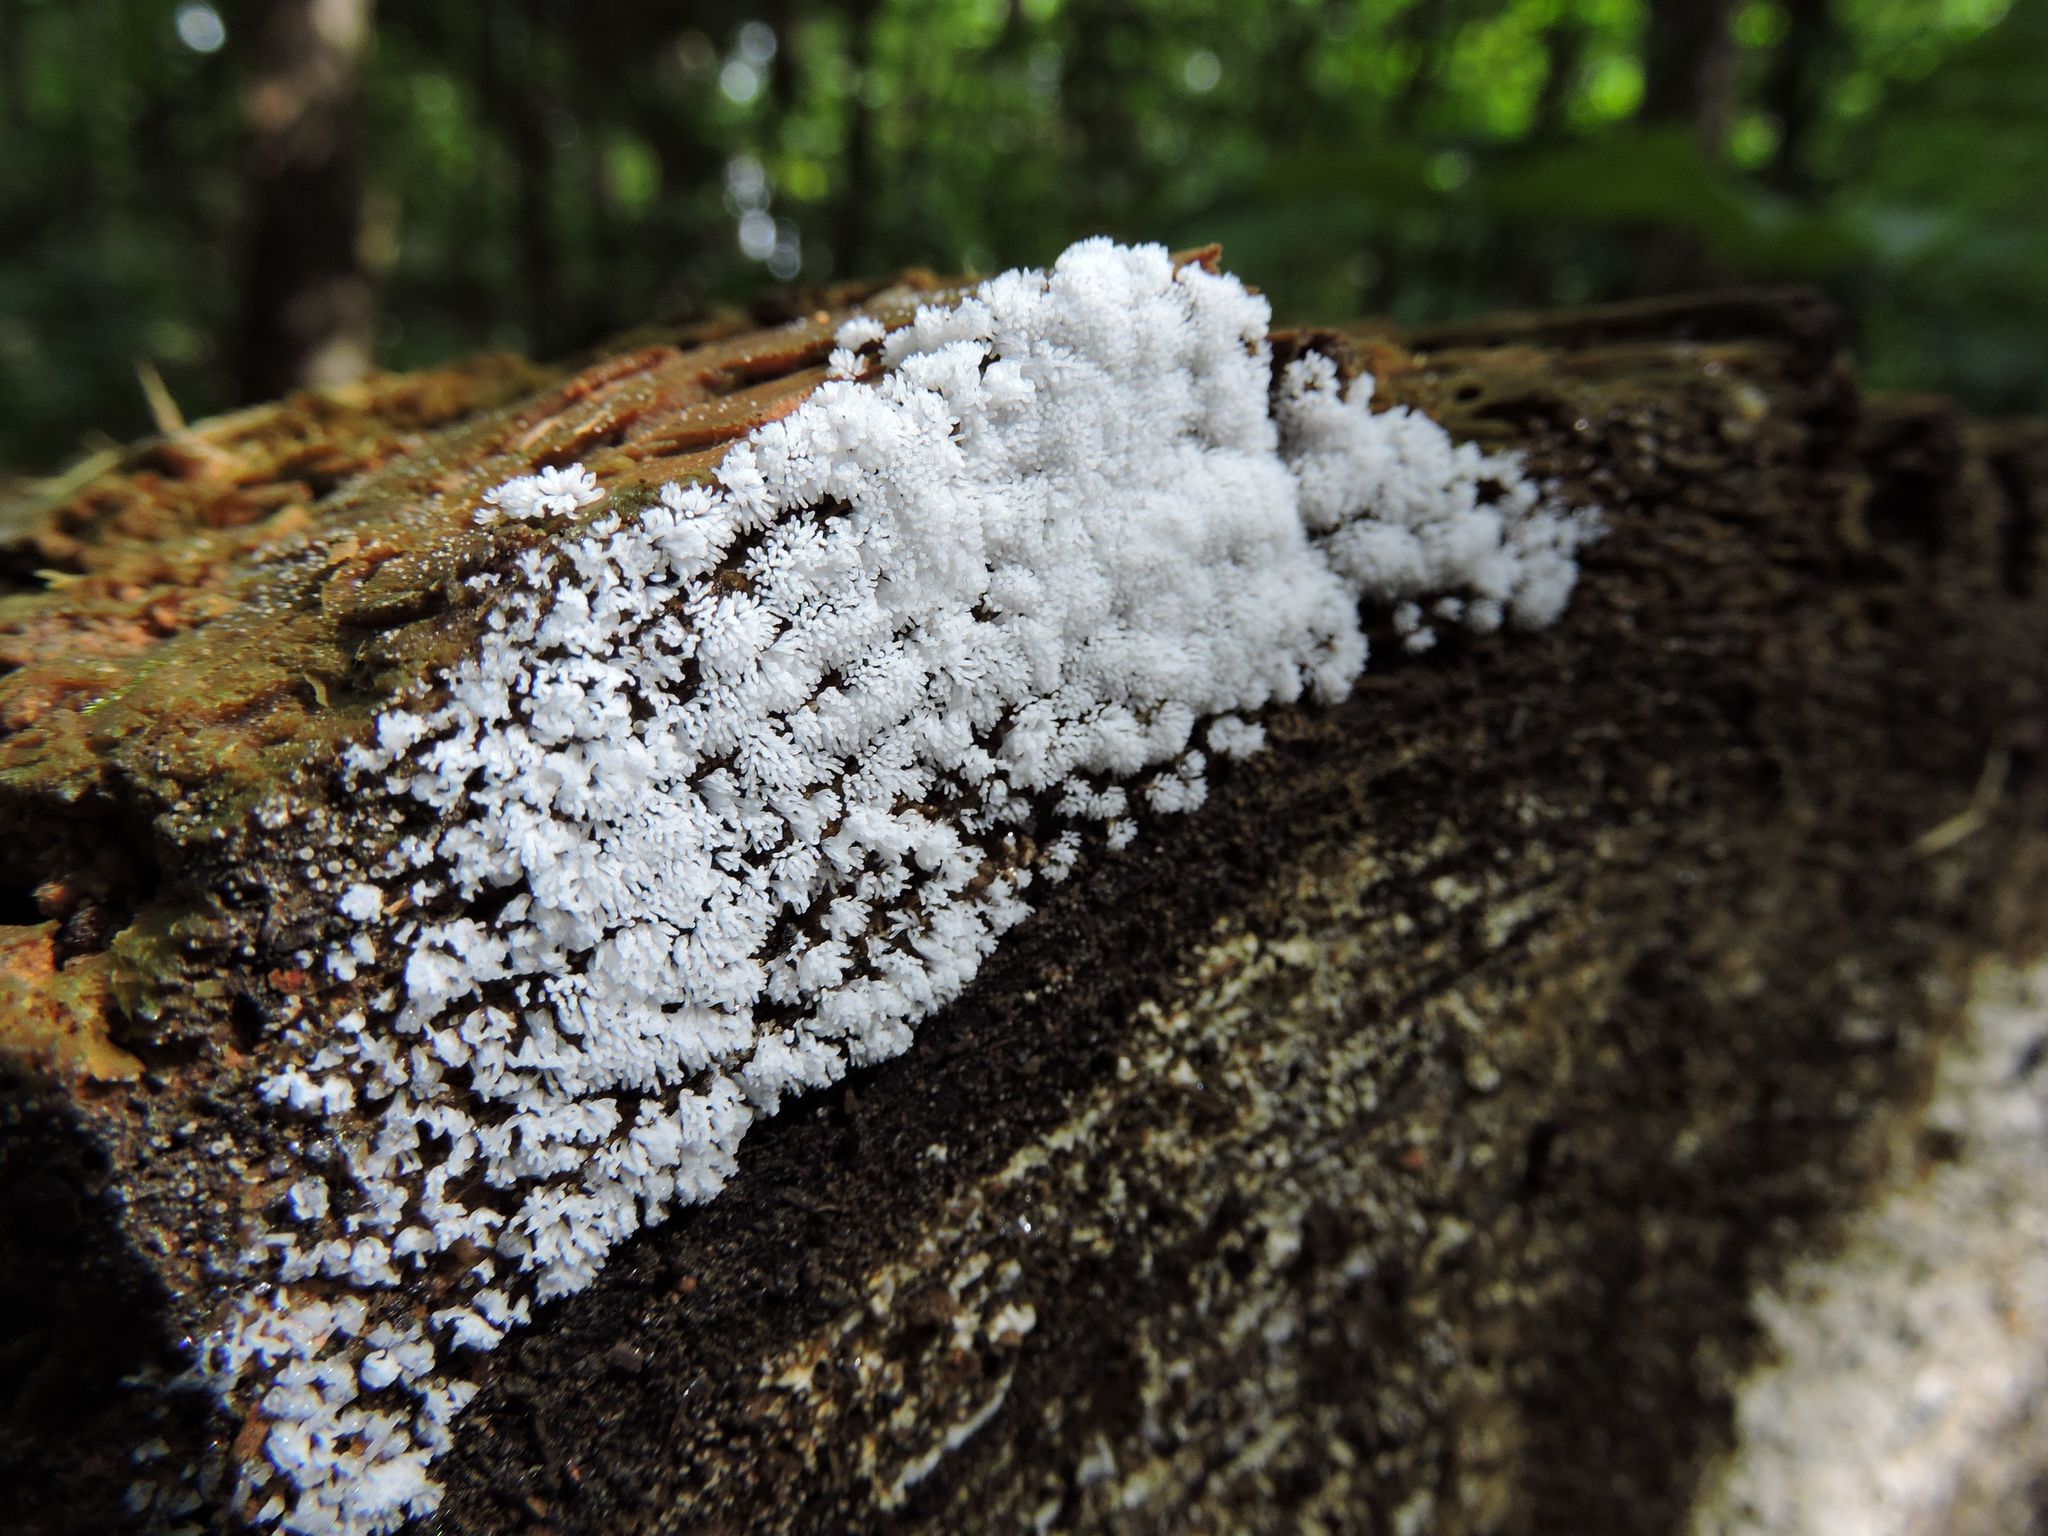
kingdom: Protozoa
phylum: Mycetozoa
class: Protosteliomycetes
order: Ceratiomyxales
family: Ceratiomyxaceae
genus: Ceratiomyxa
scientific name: Ceratiomyxa fruticulosa
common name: Honeycomb coral slime mold
